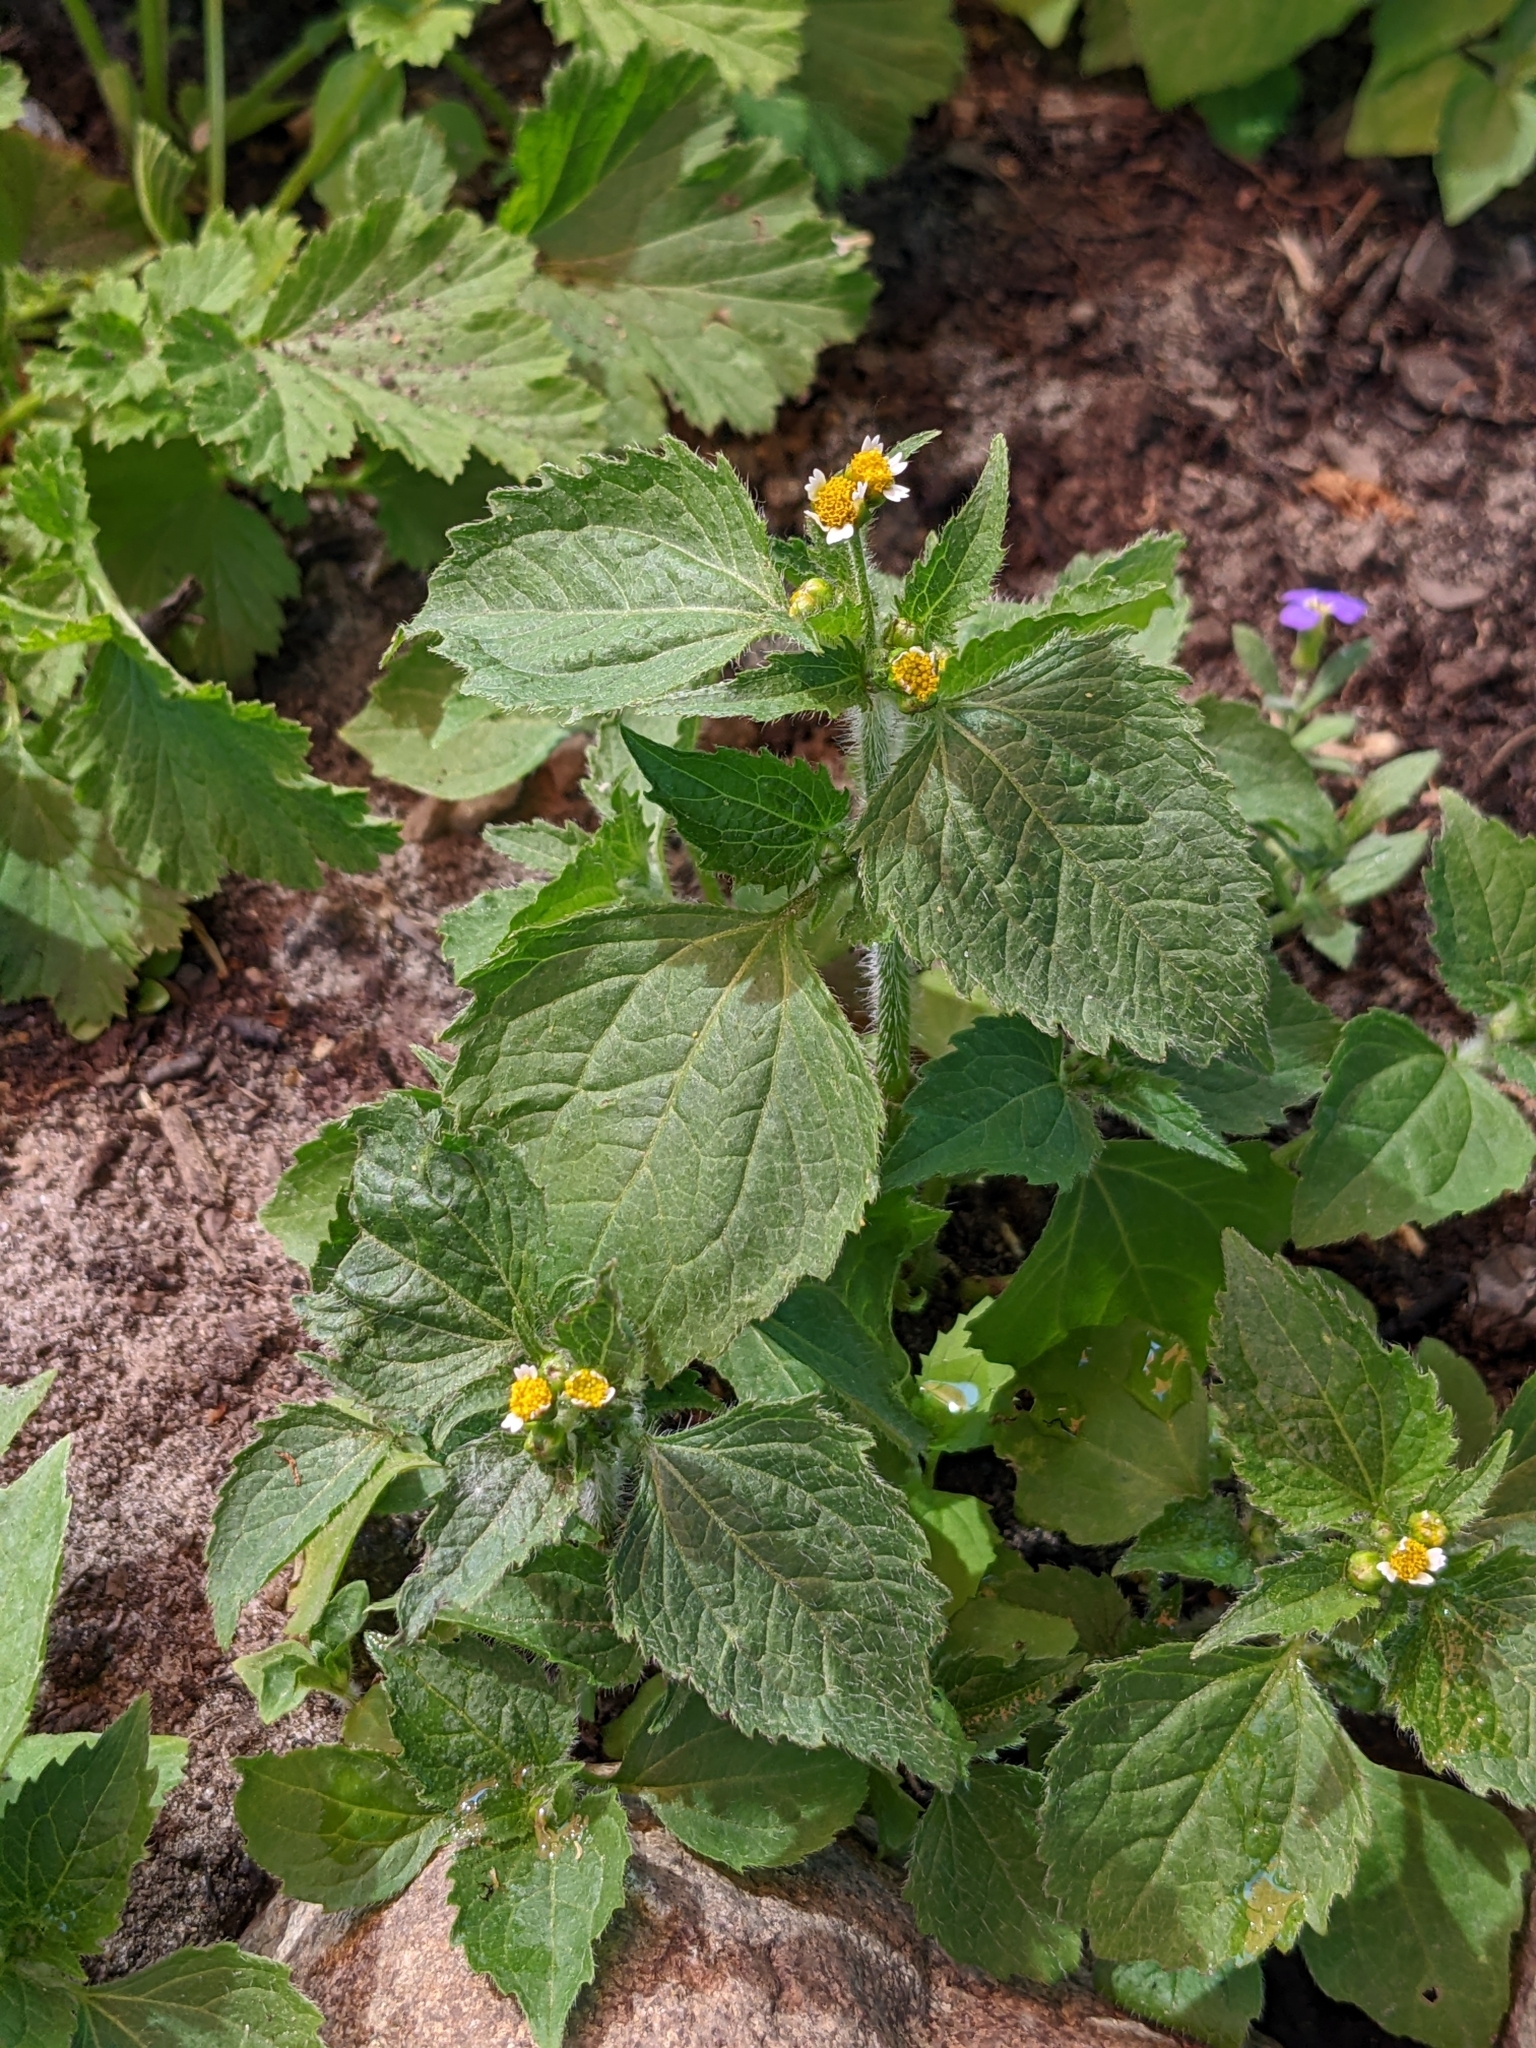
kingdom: Plantae
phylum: Tracheophyta
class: Magnoliopsida
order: Asterales
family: Asteraceae
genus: Galinsoga
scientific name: Galinsoga quadriradiata
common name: Shaggy soldier
